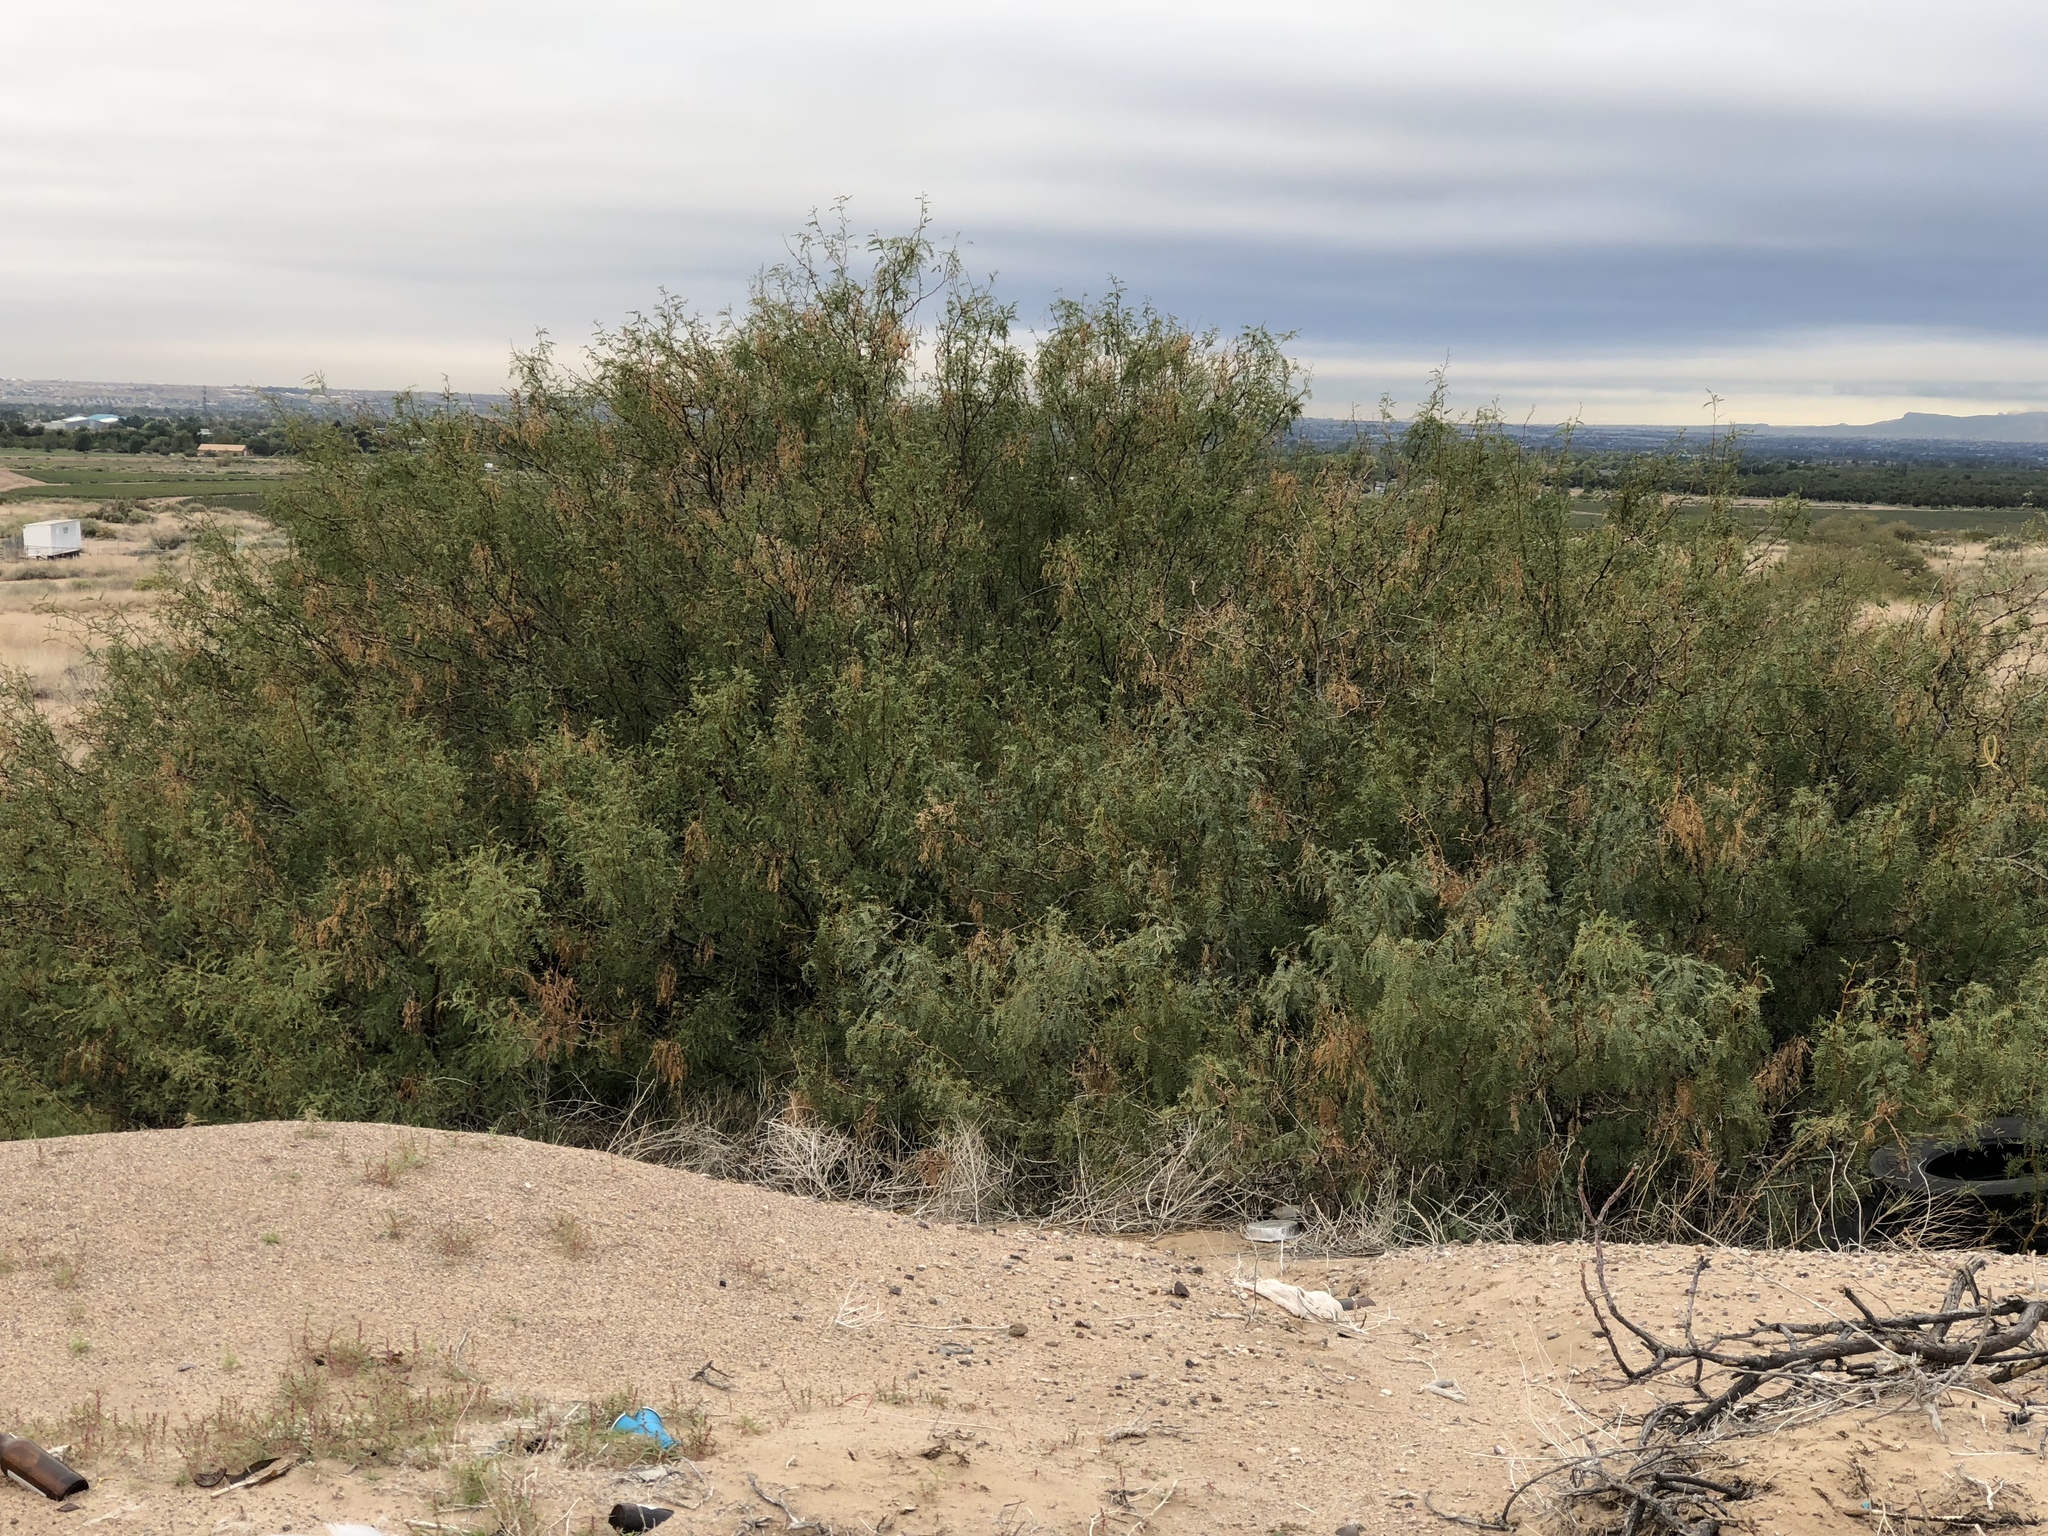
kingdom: Plantae
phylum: Tracheophyta
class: Magnoliopsida
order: Fabales
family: Fabaceae
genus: Prosopis
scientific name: Prosopis glandulosa
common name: Honey mesquite
